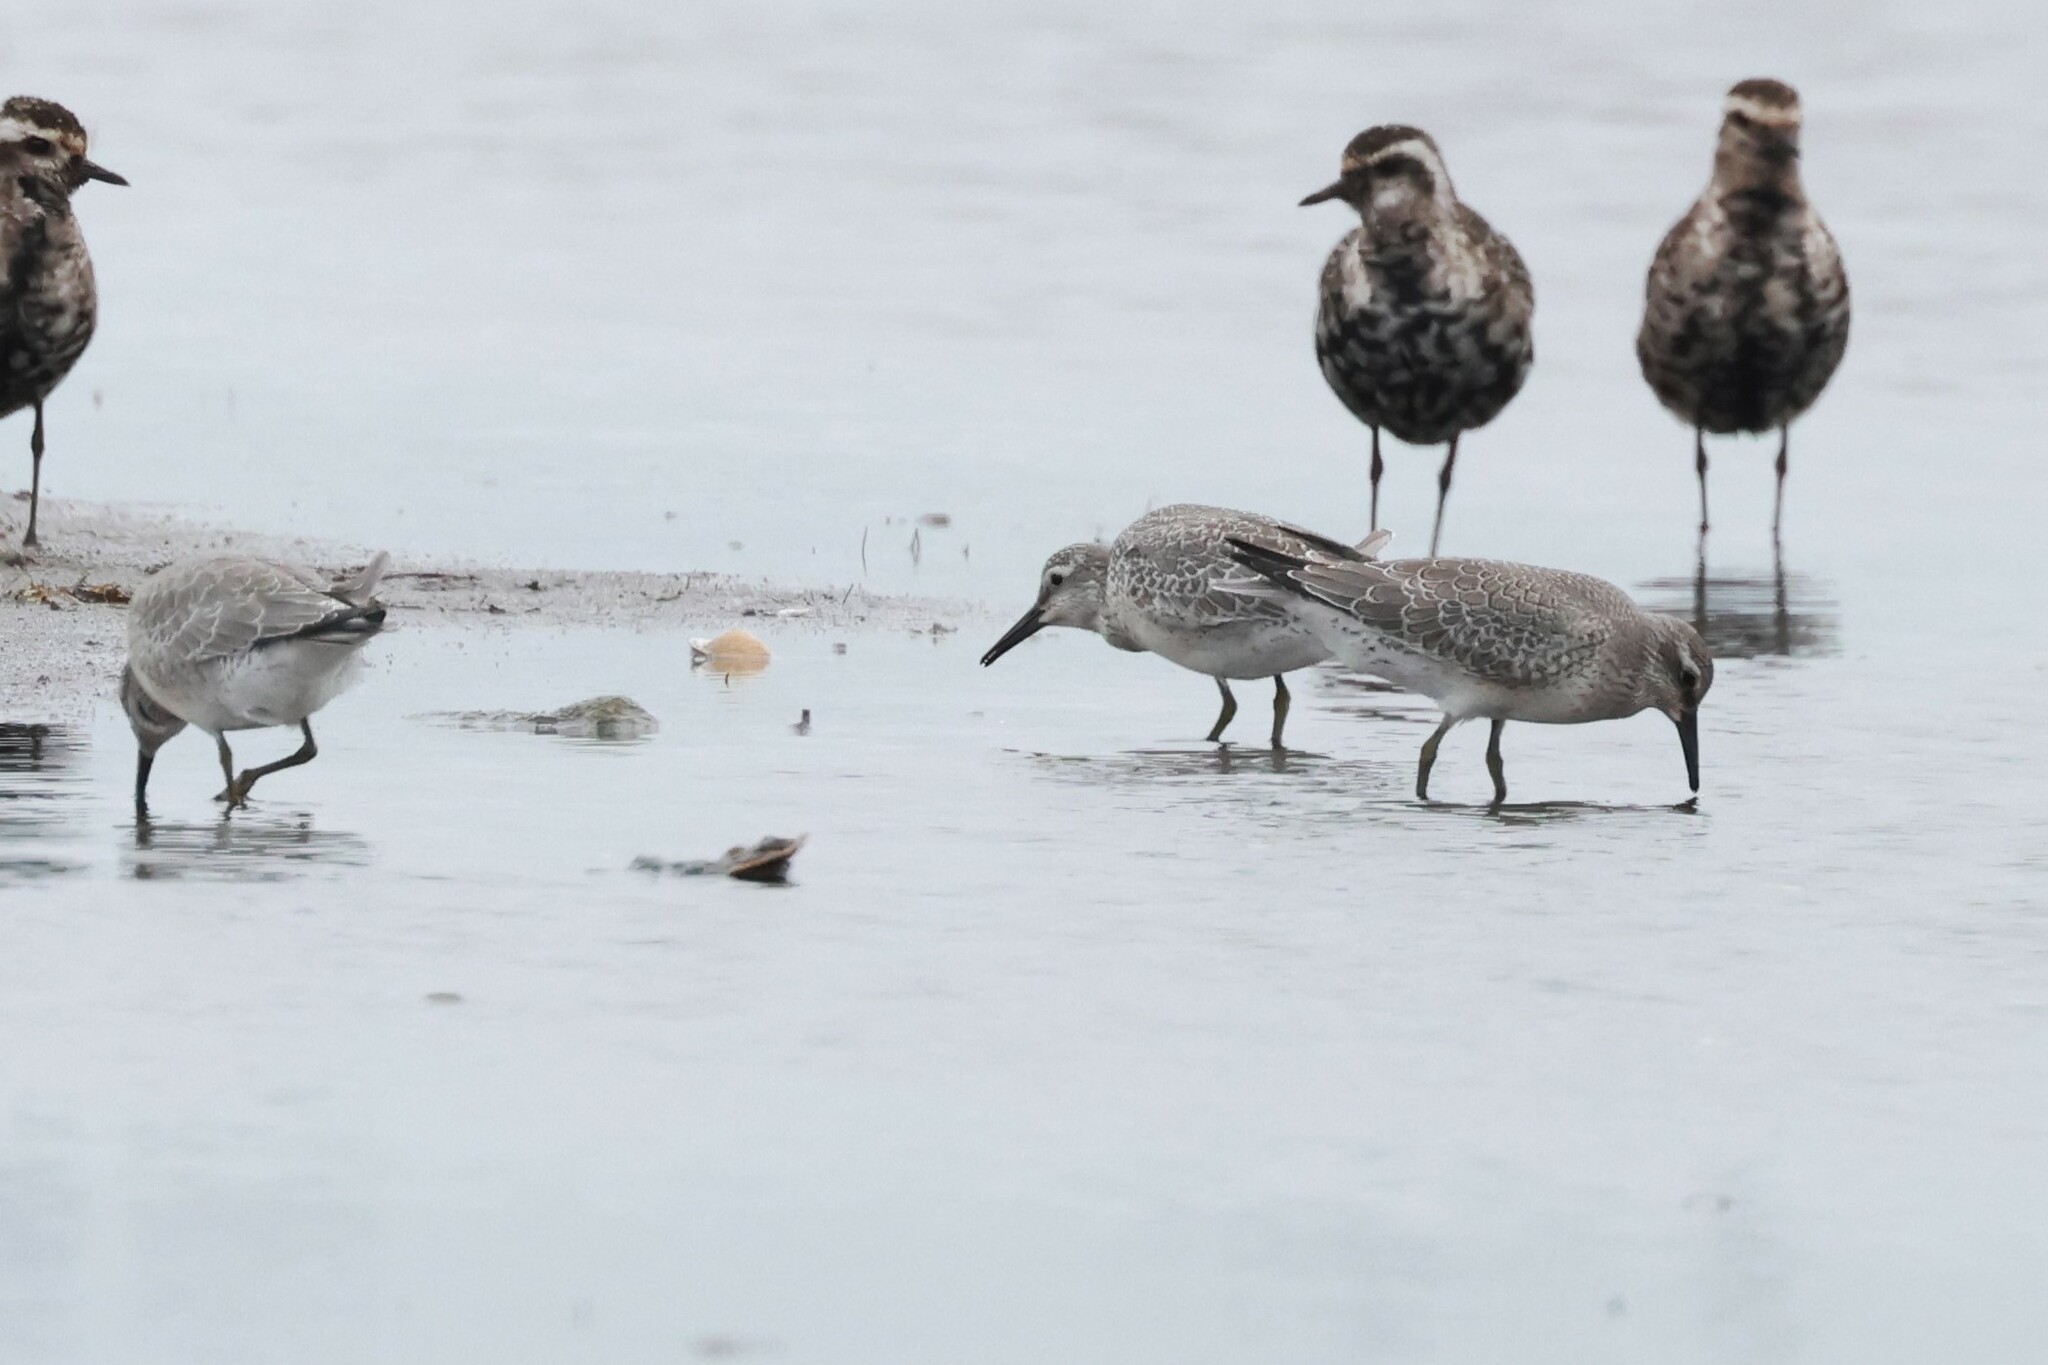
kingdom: Animalia
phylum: Chordata
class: Aves
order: Charadriiformes
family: Scolopacidae
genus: Calidris
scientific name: Calidris canutus
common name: Red knot
